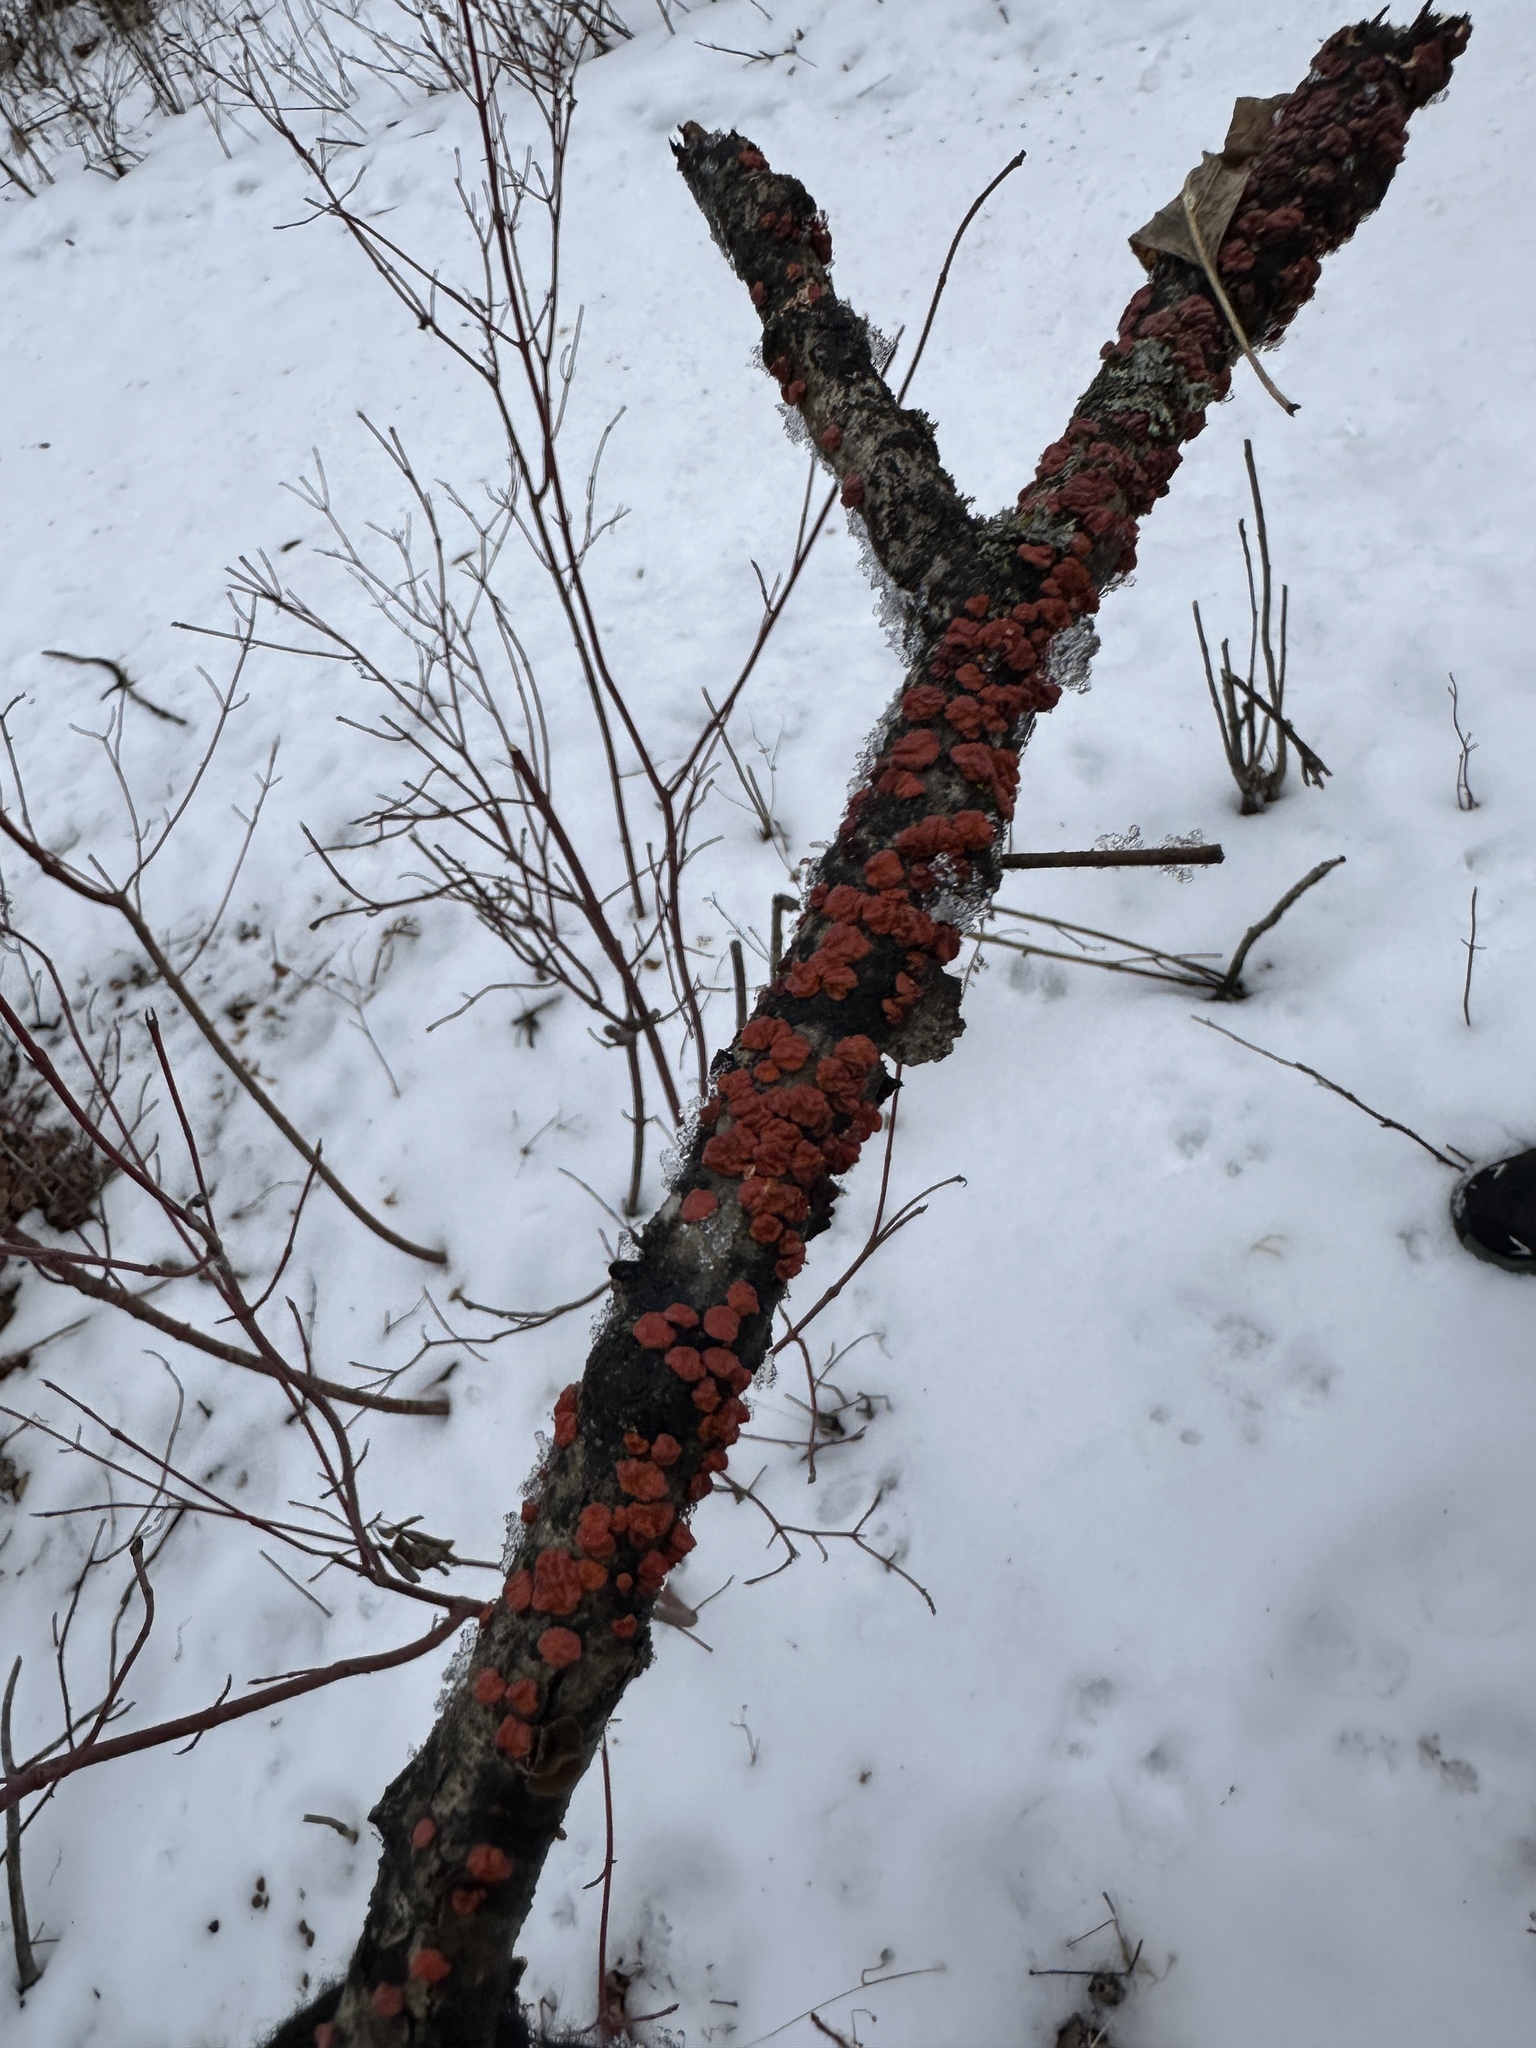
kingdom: Fungi
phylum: Basidiomycota
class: Agaricomycetes
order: Russulales
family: Peniophoraceae
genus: Peniophora
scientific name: Peniophora rufa
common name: Red tree brain fungus
